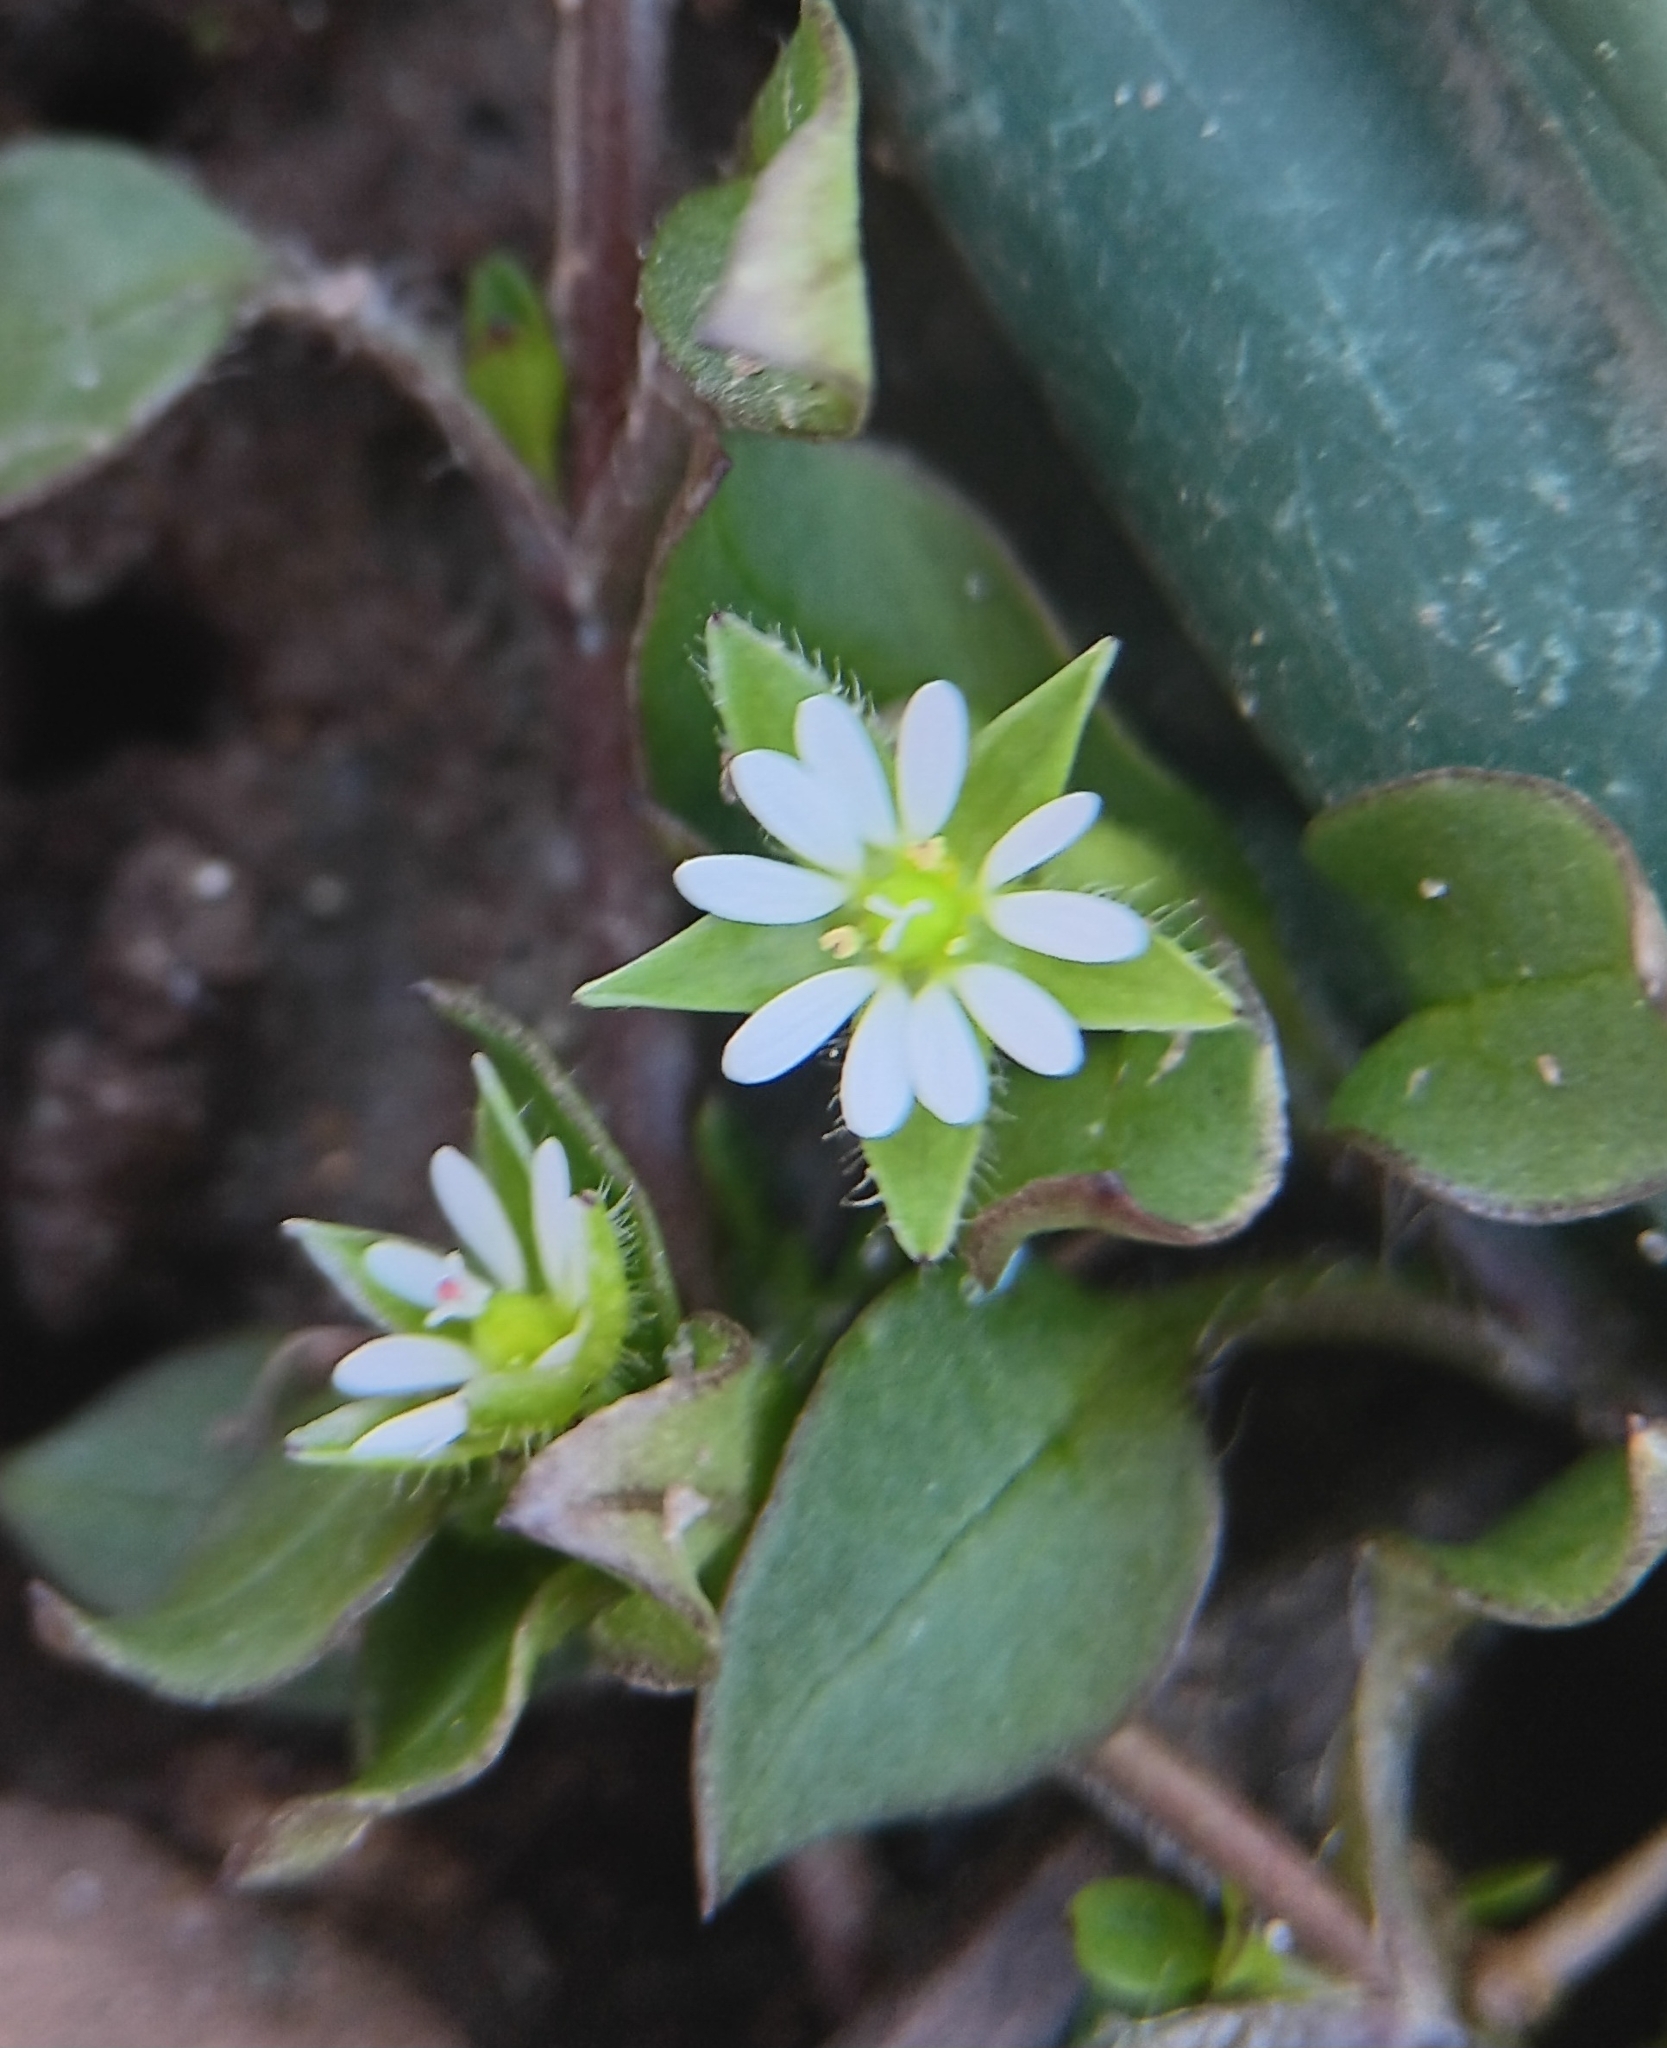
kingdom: Plantae
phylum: Tracheophyta
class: Magnoliopsida
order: Caryophyllales
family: Caryophyllaceae
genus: Stellaria
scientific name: Stellaria media
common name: Common chickweed
